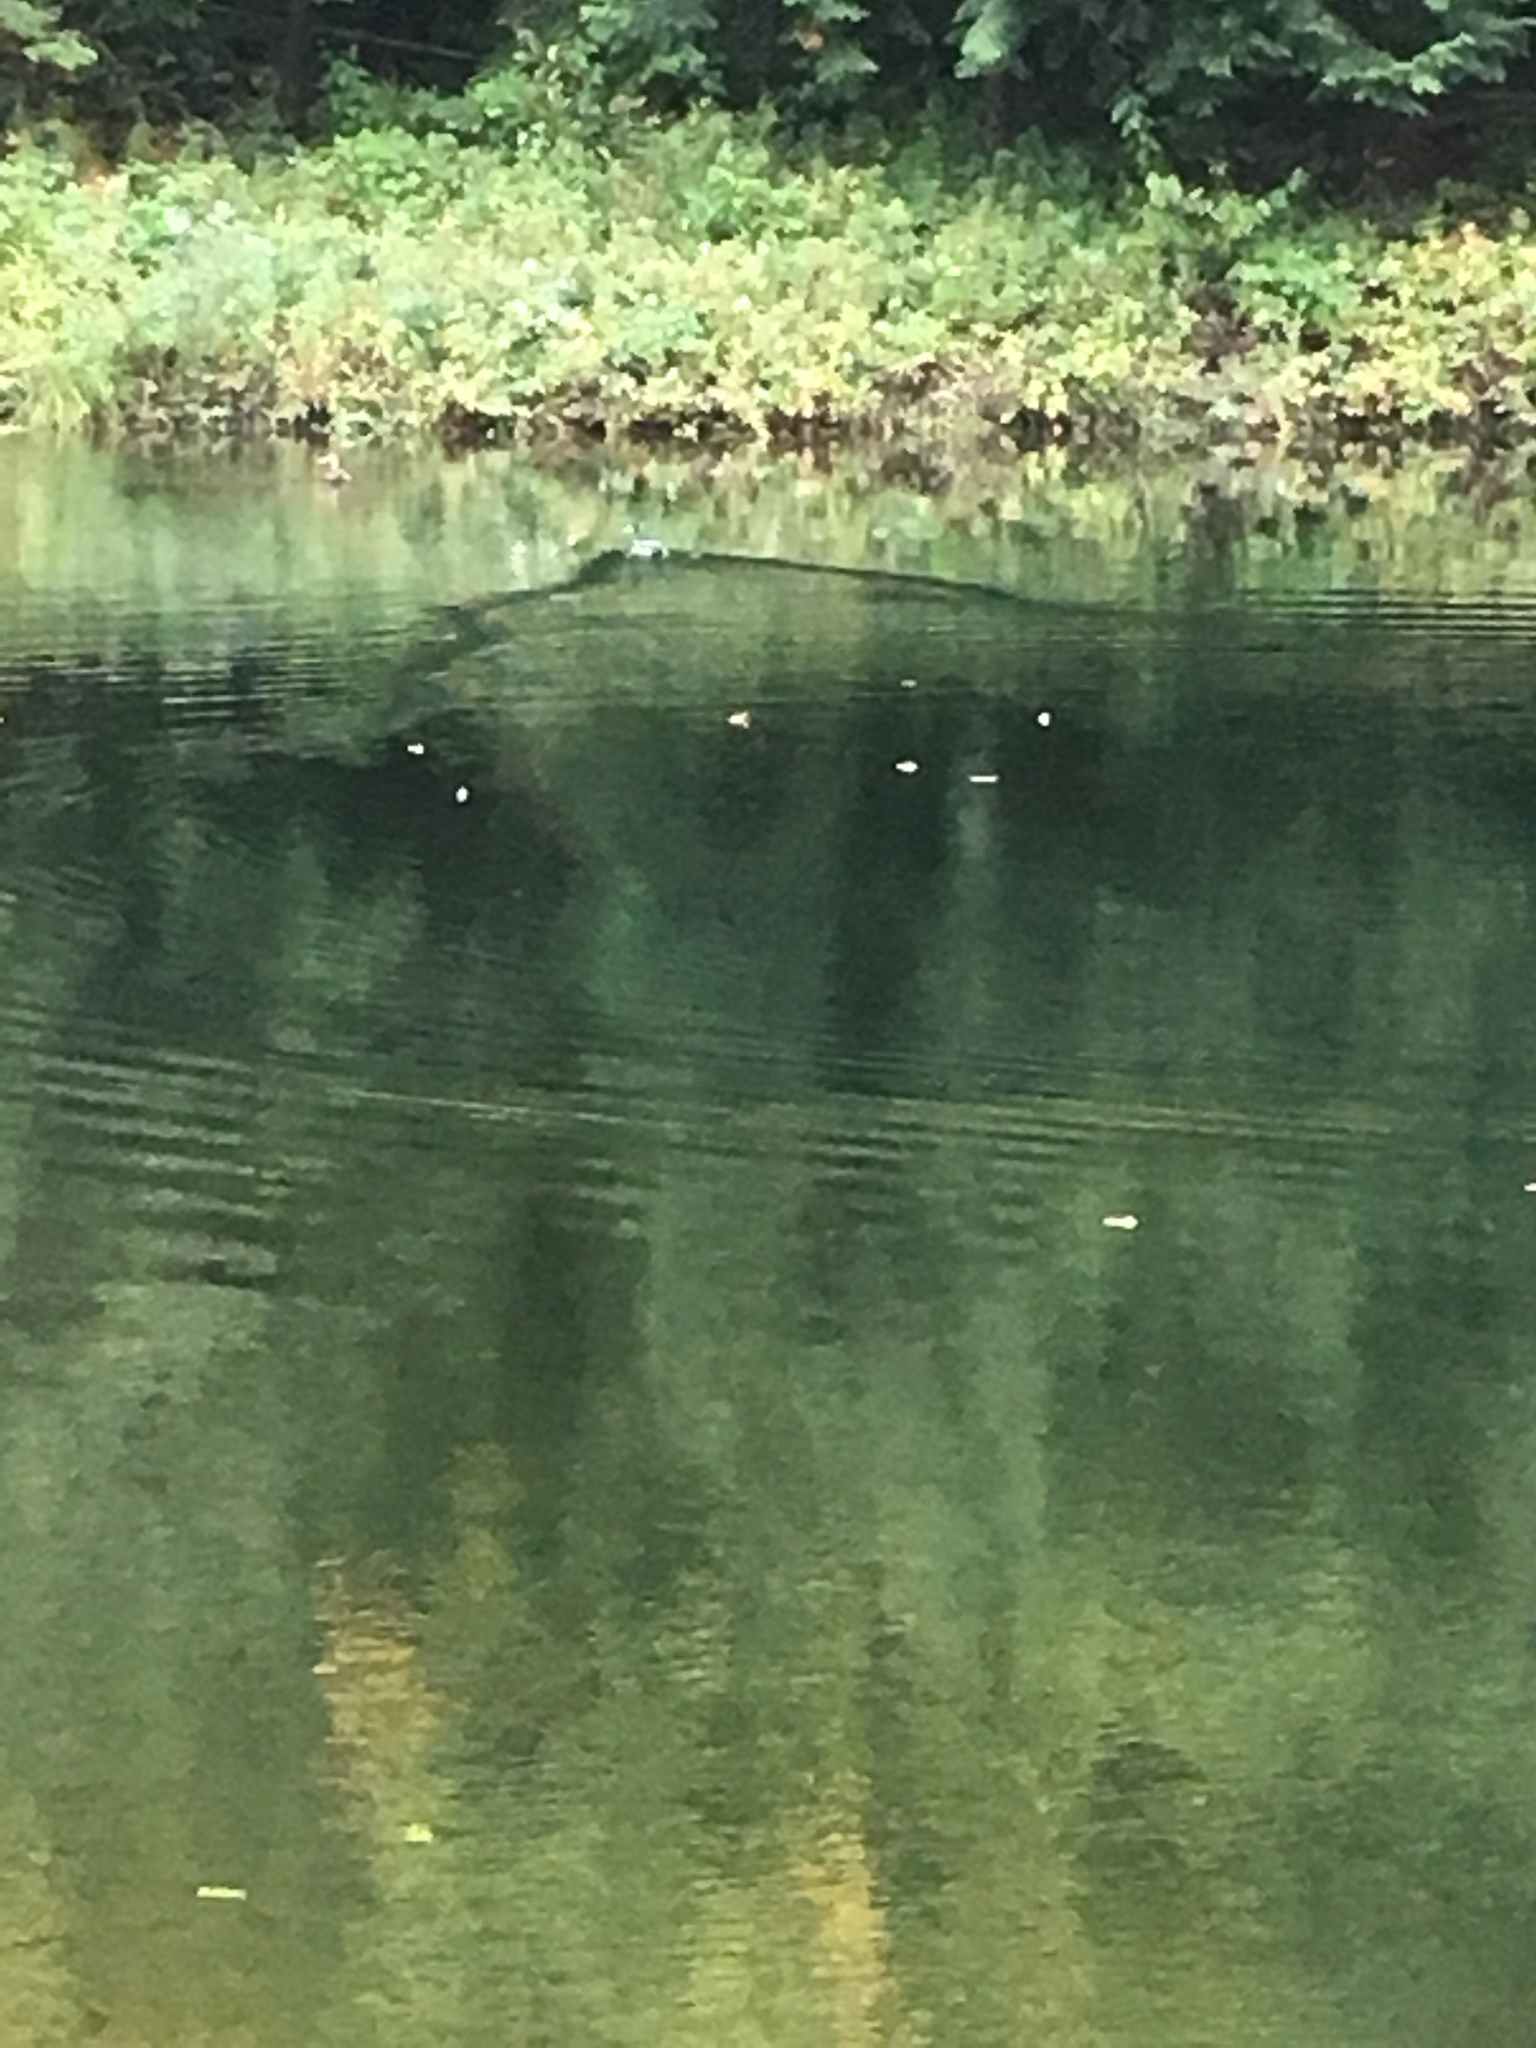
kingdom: Animalia
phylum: Chordata
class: Aves
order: Anseriformes
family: Anatidae
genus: Anas
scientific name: Anas platyrhynchos
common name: Mallard
